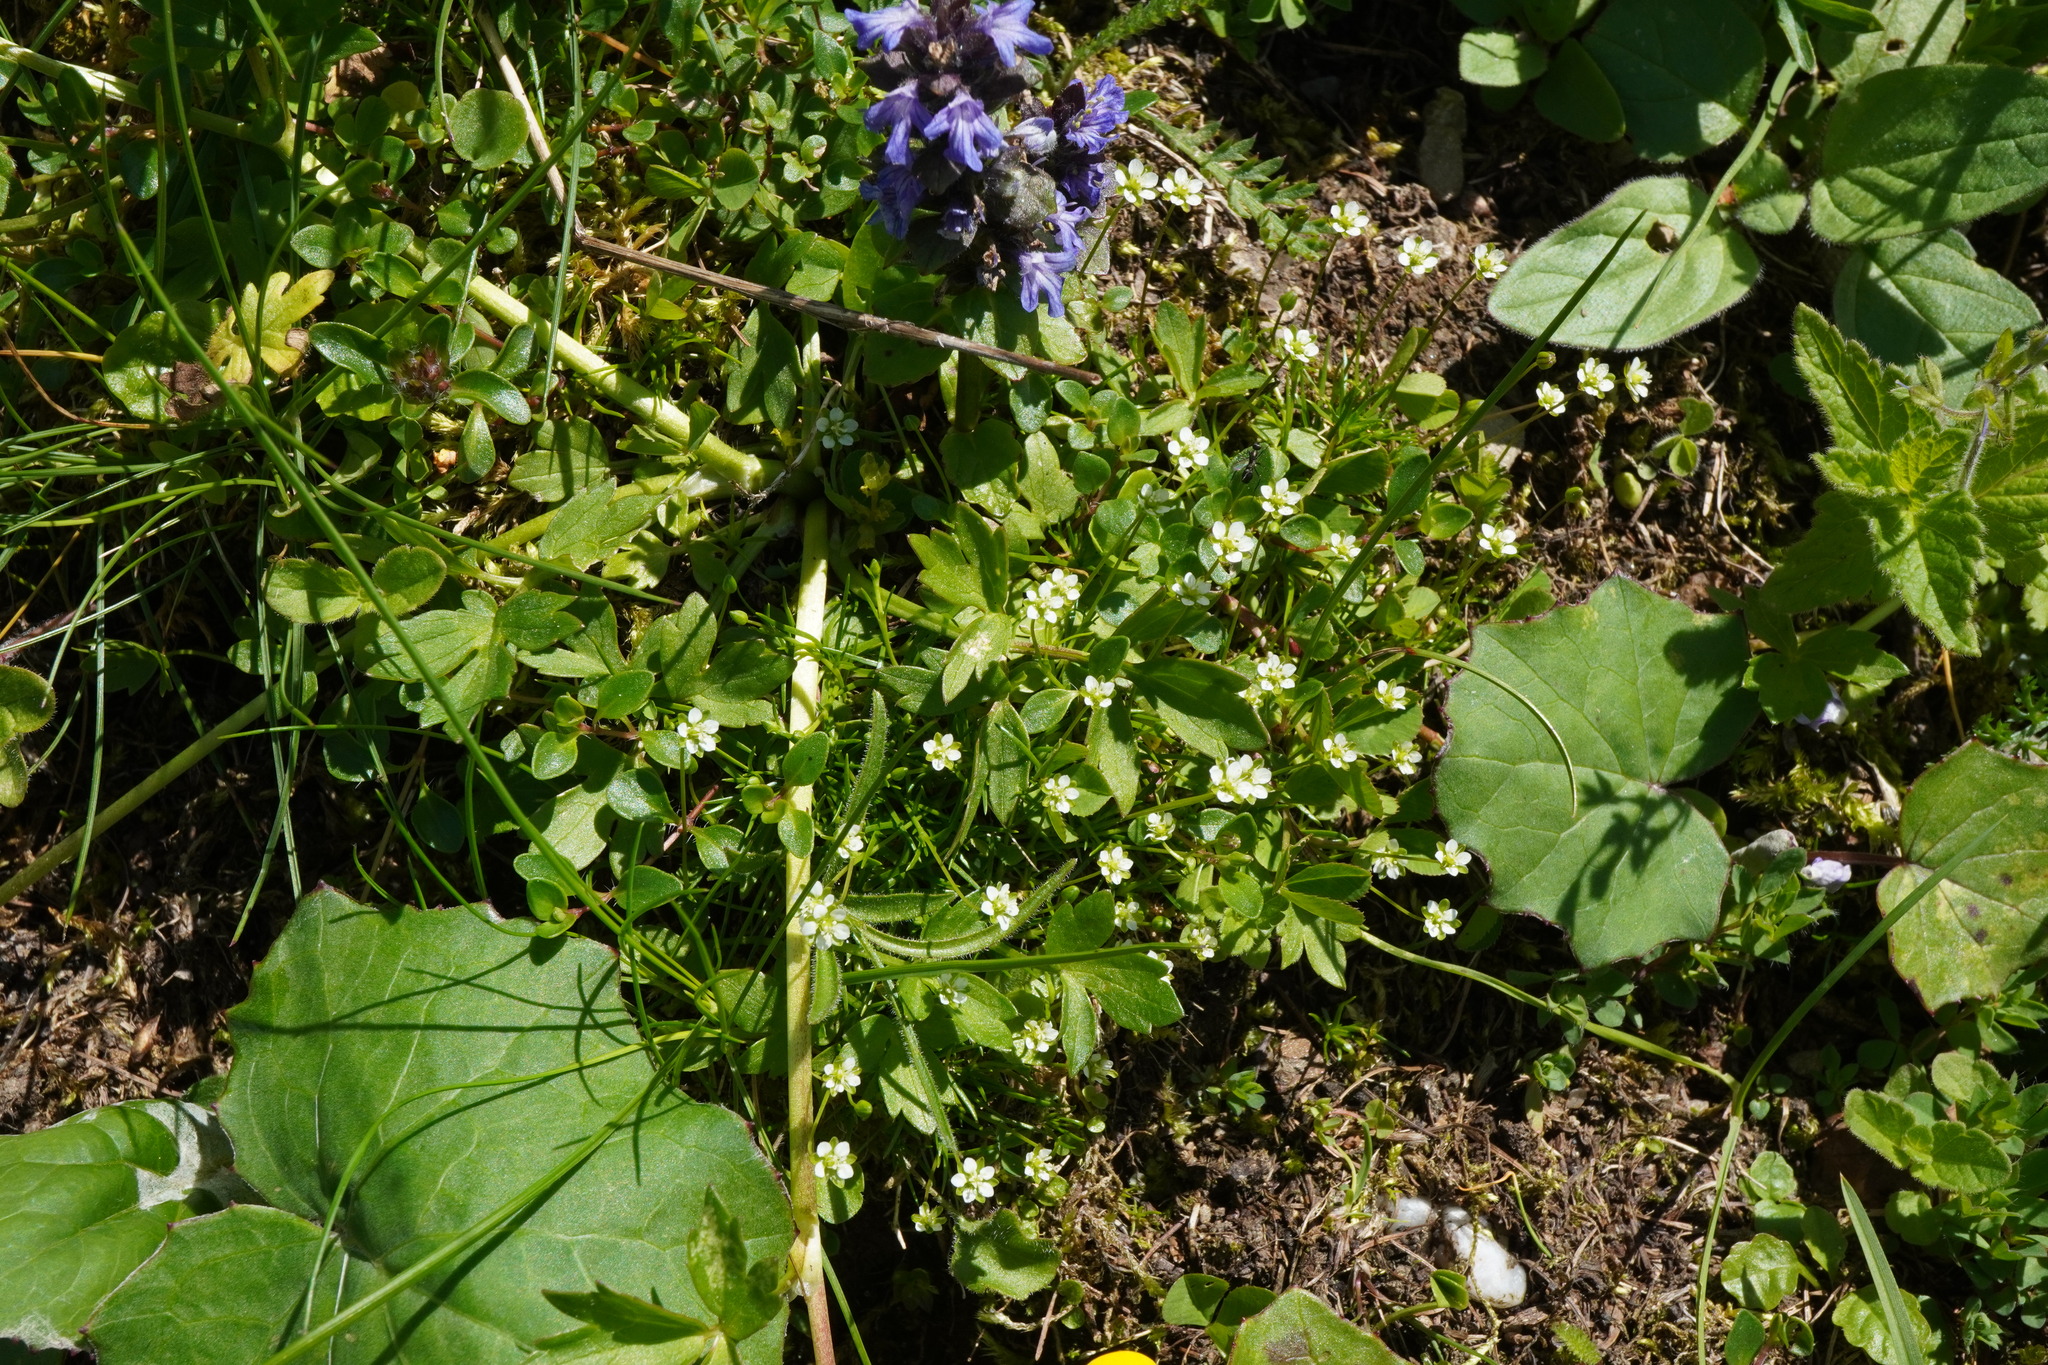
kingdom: Plantae
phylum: Tracheophyta
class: Magnoliopsida
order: Caryophyllales
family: Caryophyllaceae
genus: Sagina
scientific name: Sagina saginoides
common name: Alpine pearlwort
